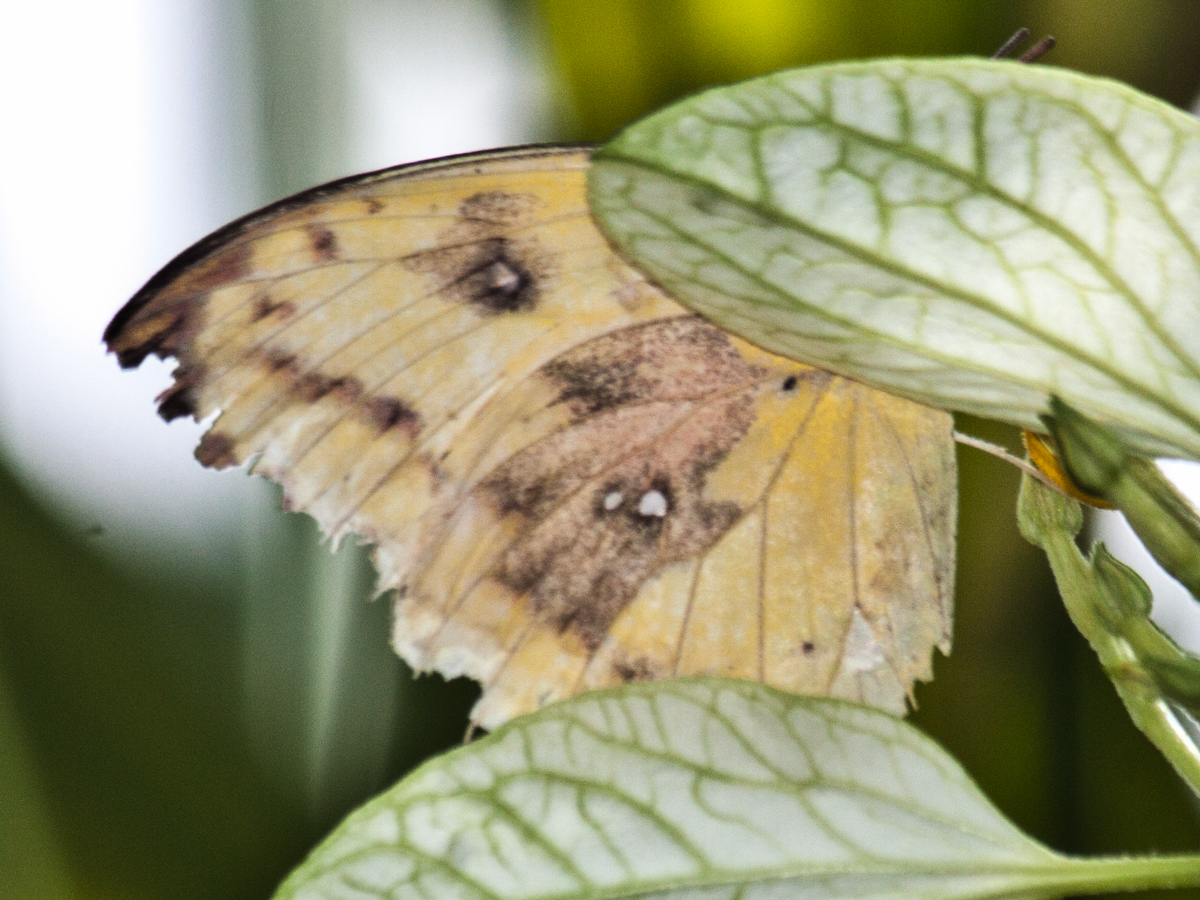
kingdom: Animalia
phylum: Arthropoda
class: Insecta
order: Lepidoptera
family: Pieridae
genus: Catopsilia
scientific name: Catopsilia pomona
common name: Common emigrant
